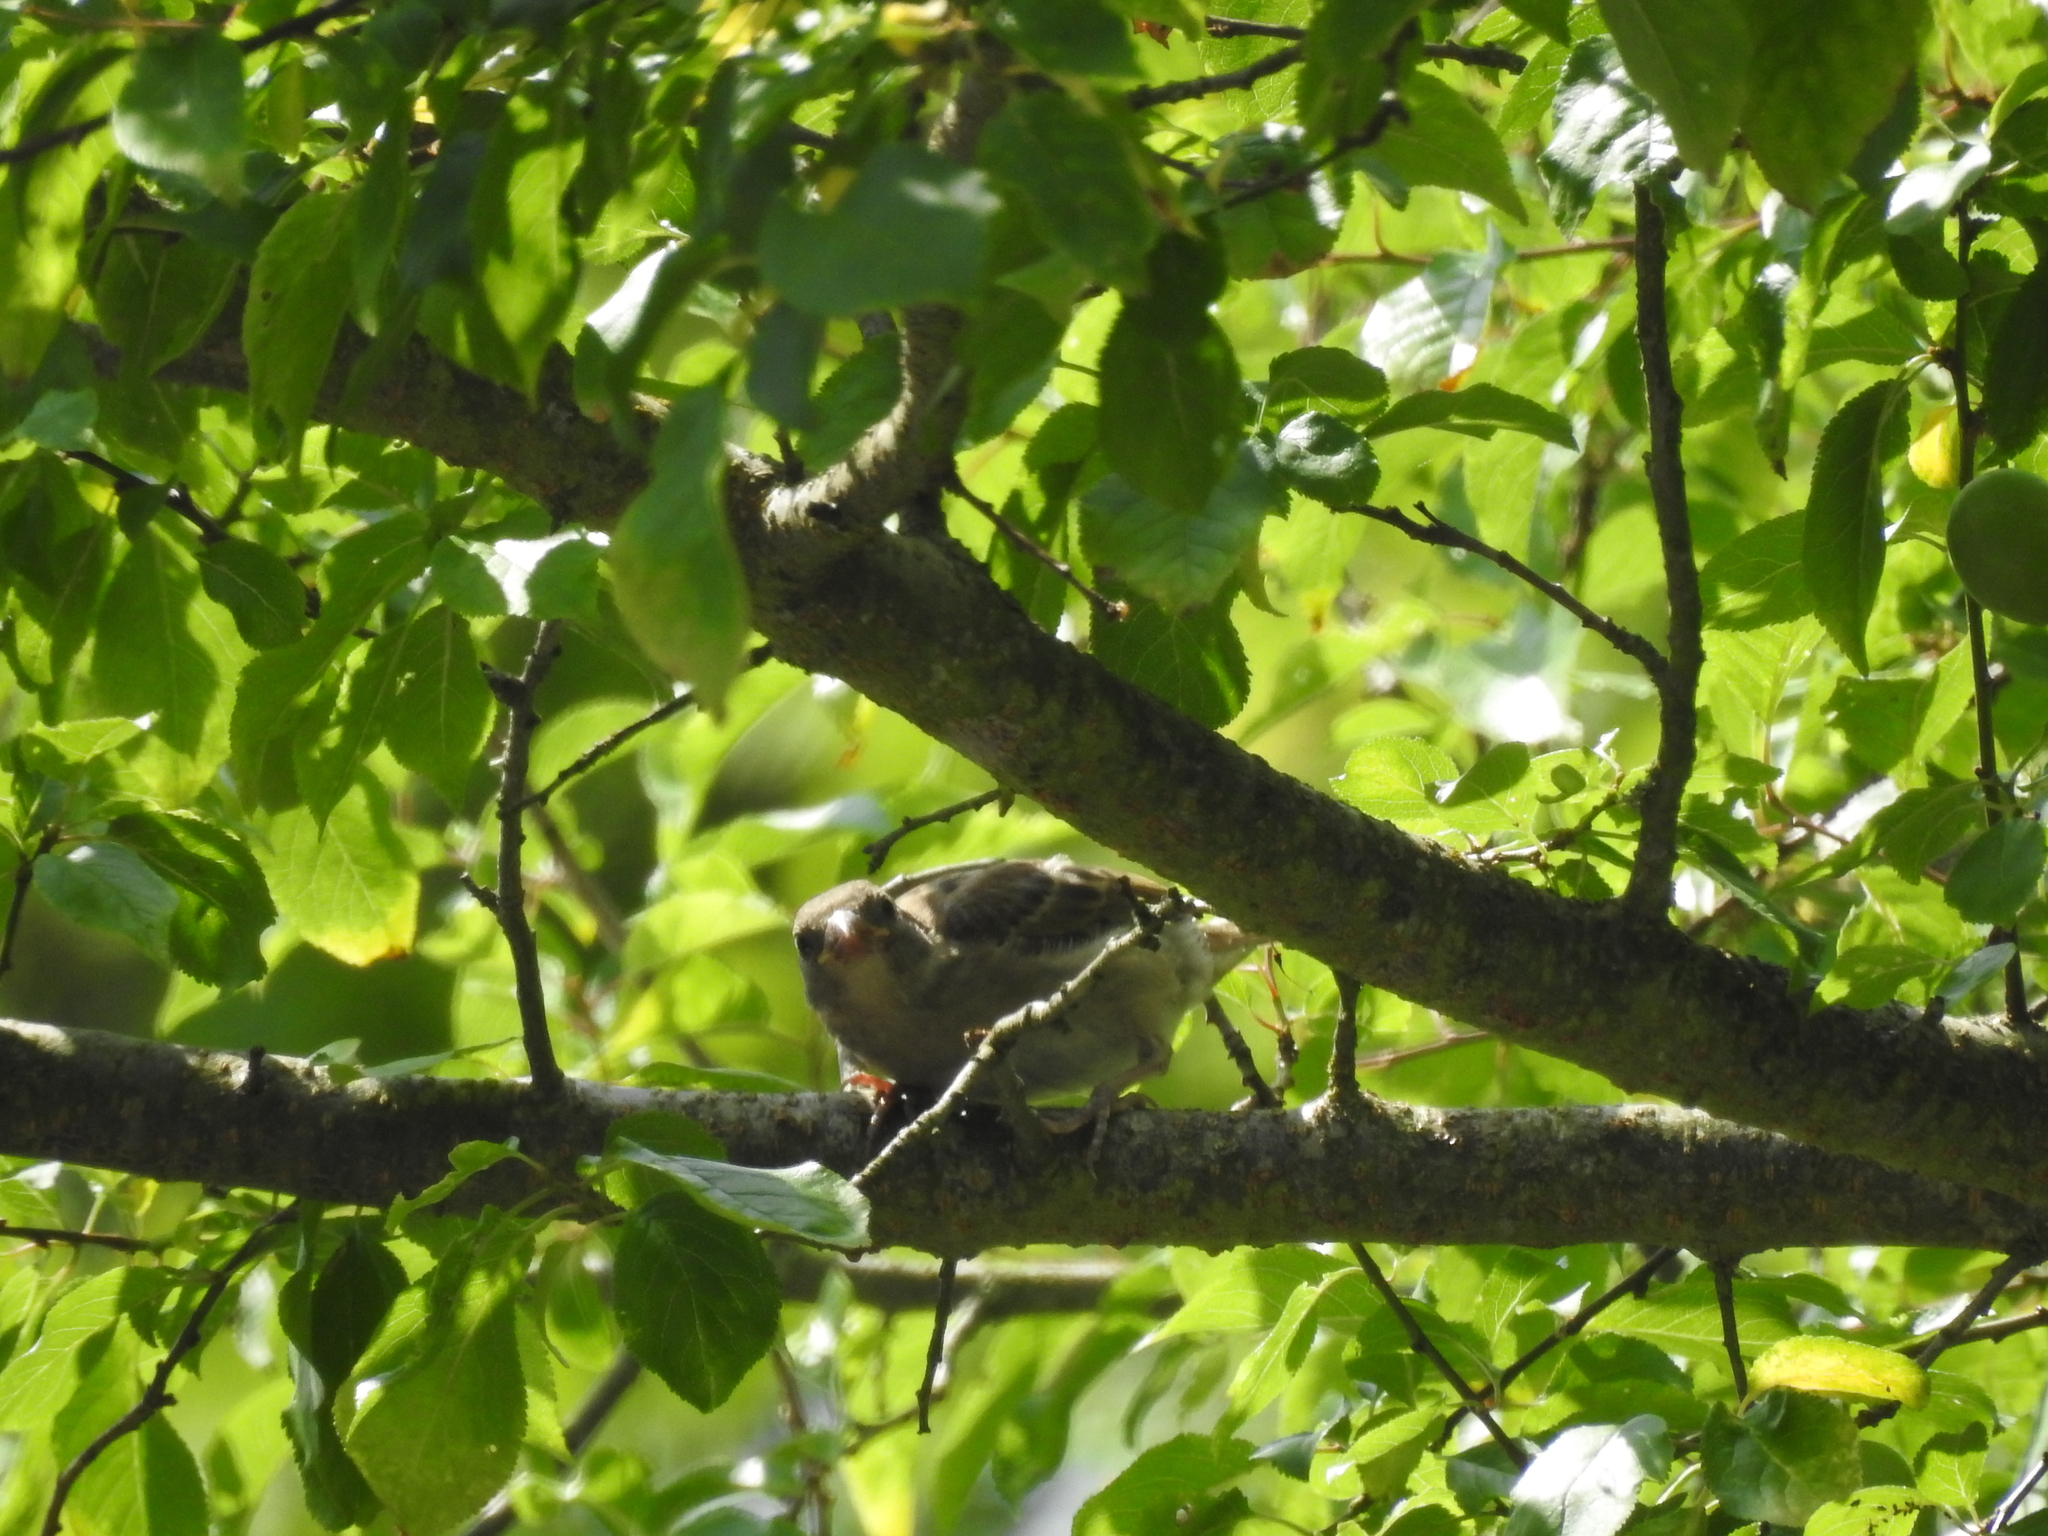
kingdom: Plantae
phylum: Tracheophyta
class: Liliopsida
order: Poales
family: Poaceae
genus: Chloris
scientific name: Chloris chloris
